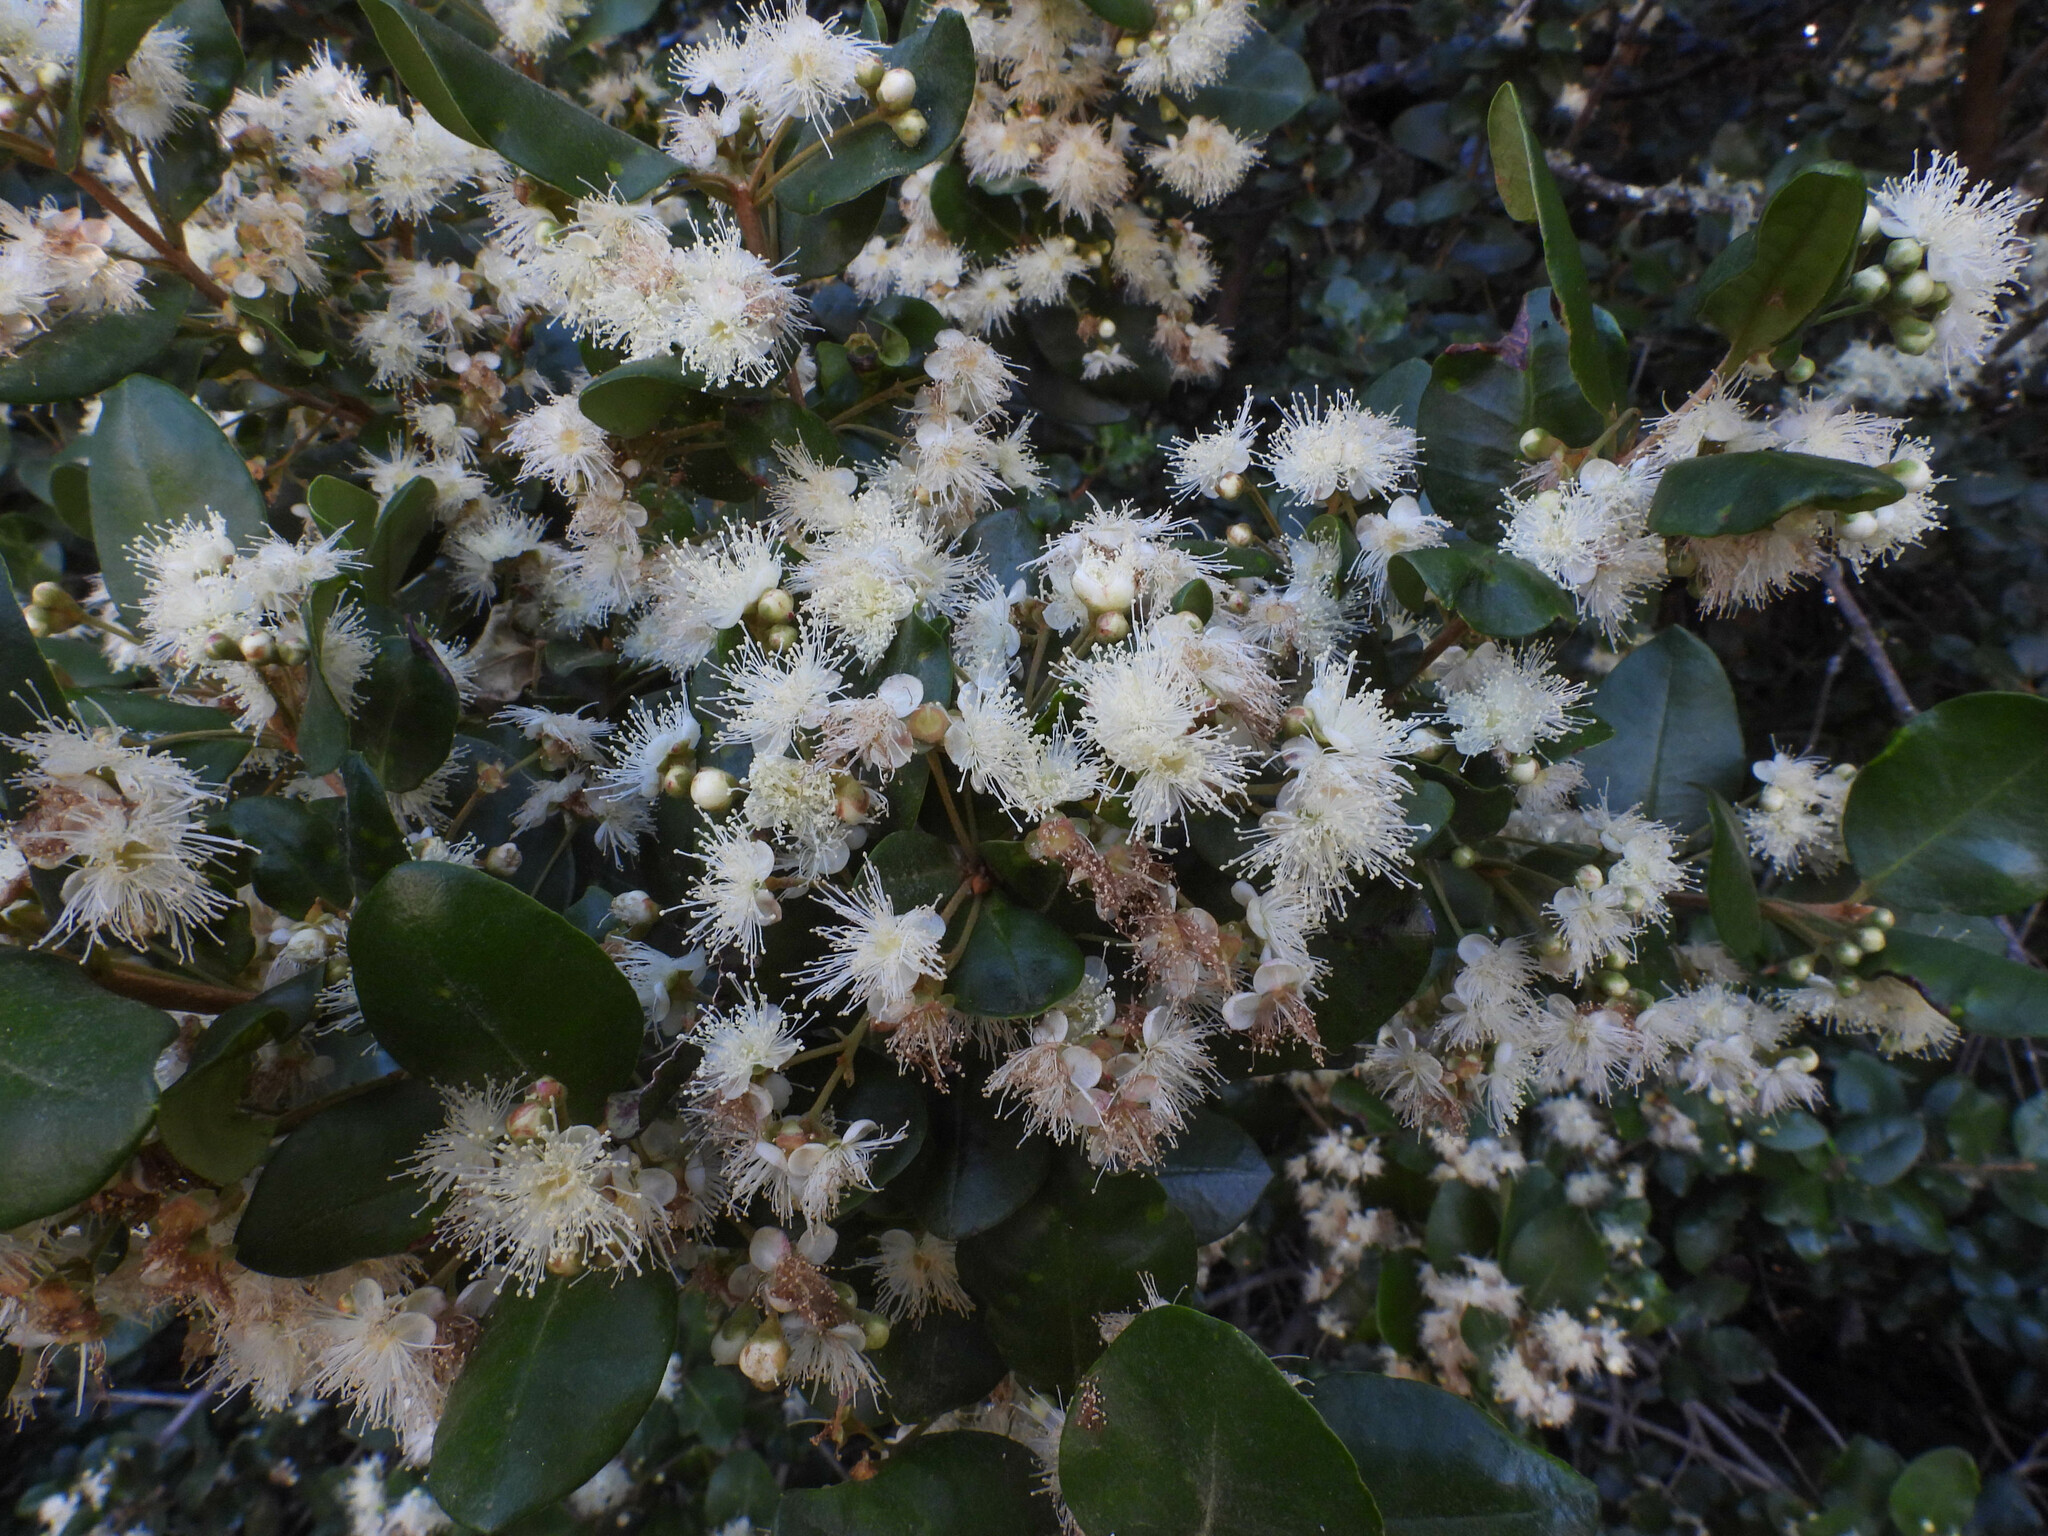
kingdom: Plantae
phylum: Tracheophyta
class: Magnoliopsida
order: Myrtales
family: Myrtaceae
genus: Myrceugenia
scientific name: Myrceugenia exsucca
